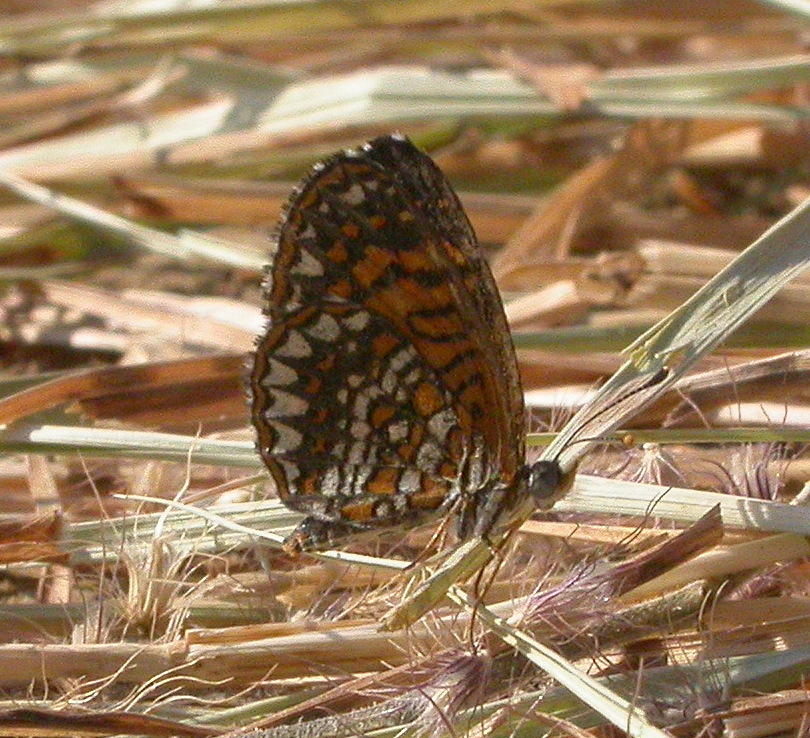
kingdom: Animalia
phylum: Arthropoda
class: Insecta
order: Lepidoptera
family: Nymphalidae
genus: Texola
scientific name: Texola elada
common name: Elada checkerspot
